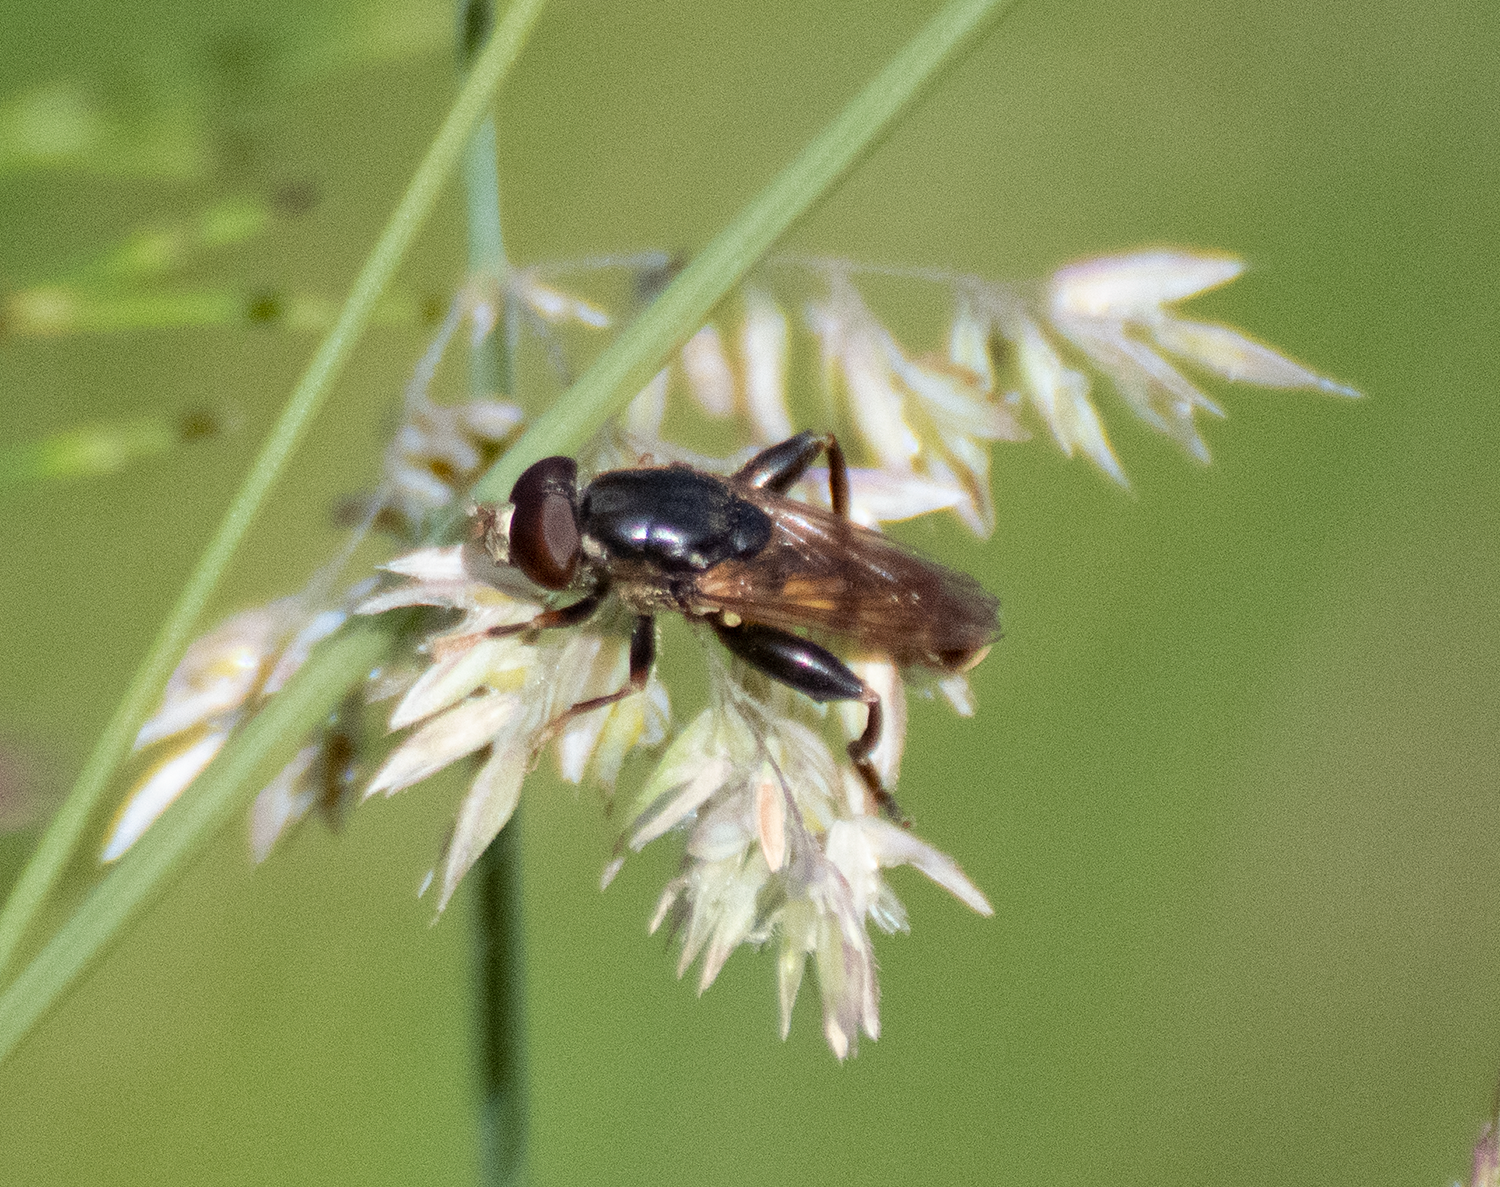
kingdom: Animalia
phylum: Arthropoda
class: Insecta
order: Diptera
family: Syrphidae
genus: Tropidia
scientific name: Tropidia quadrata
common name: Common thick-legged fly
